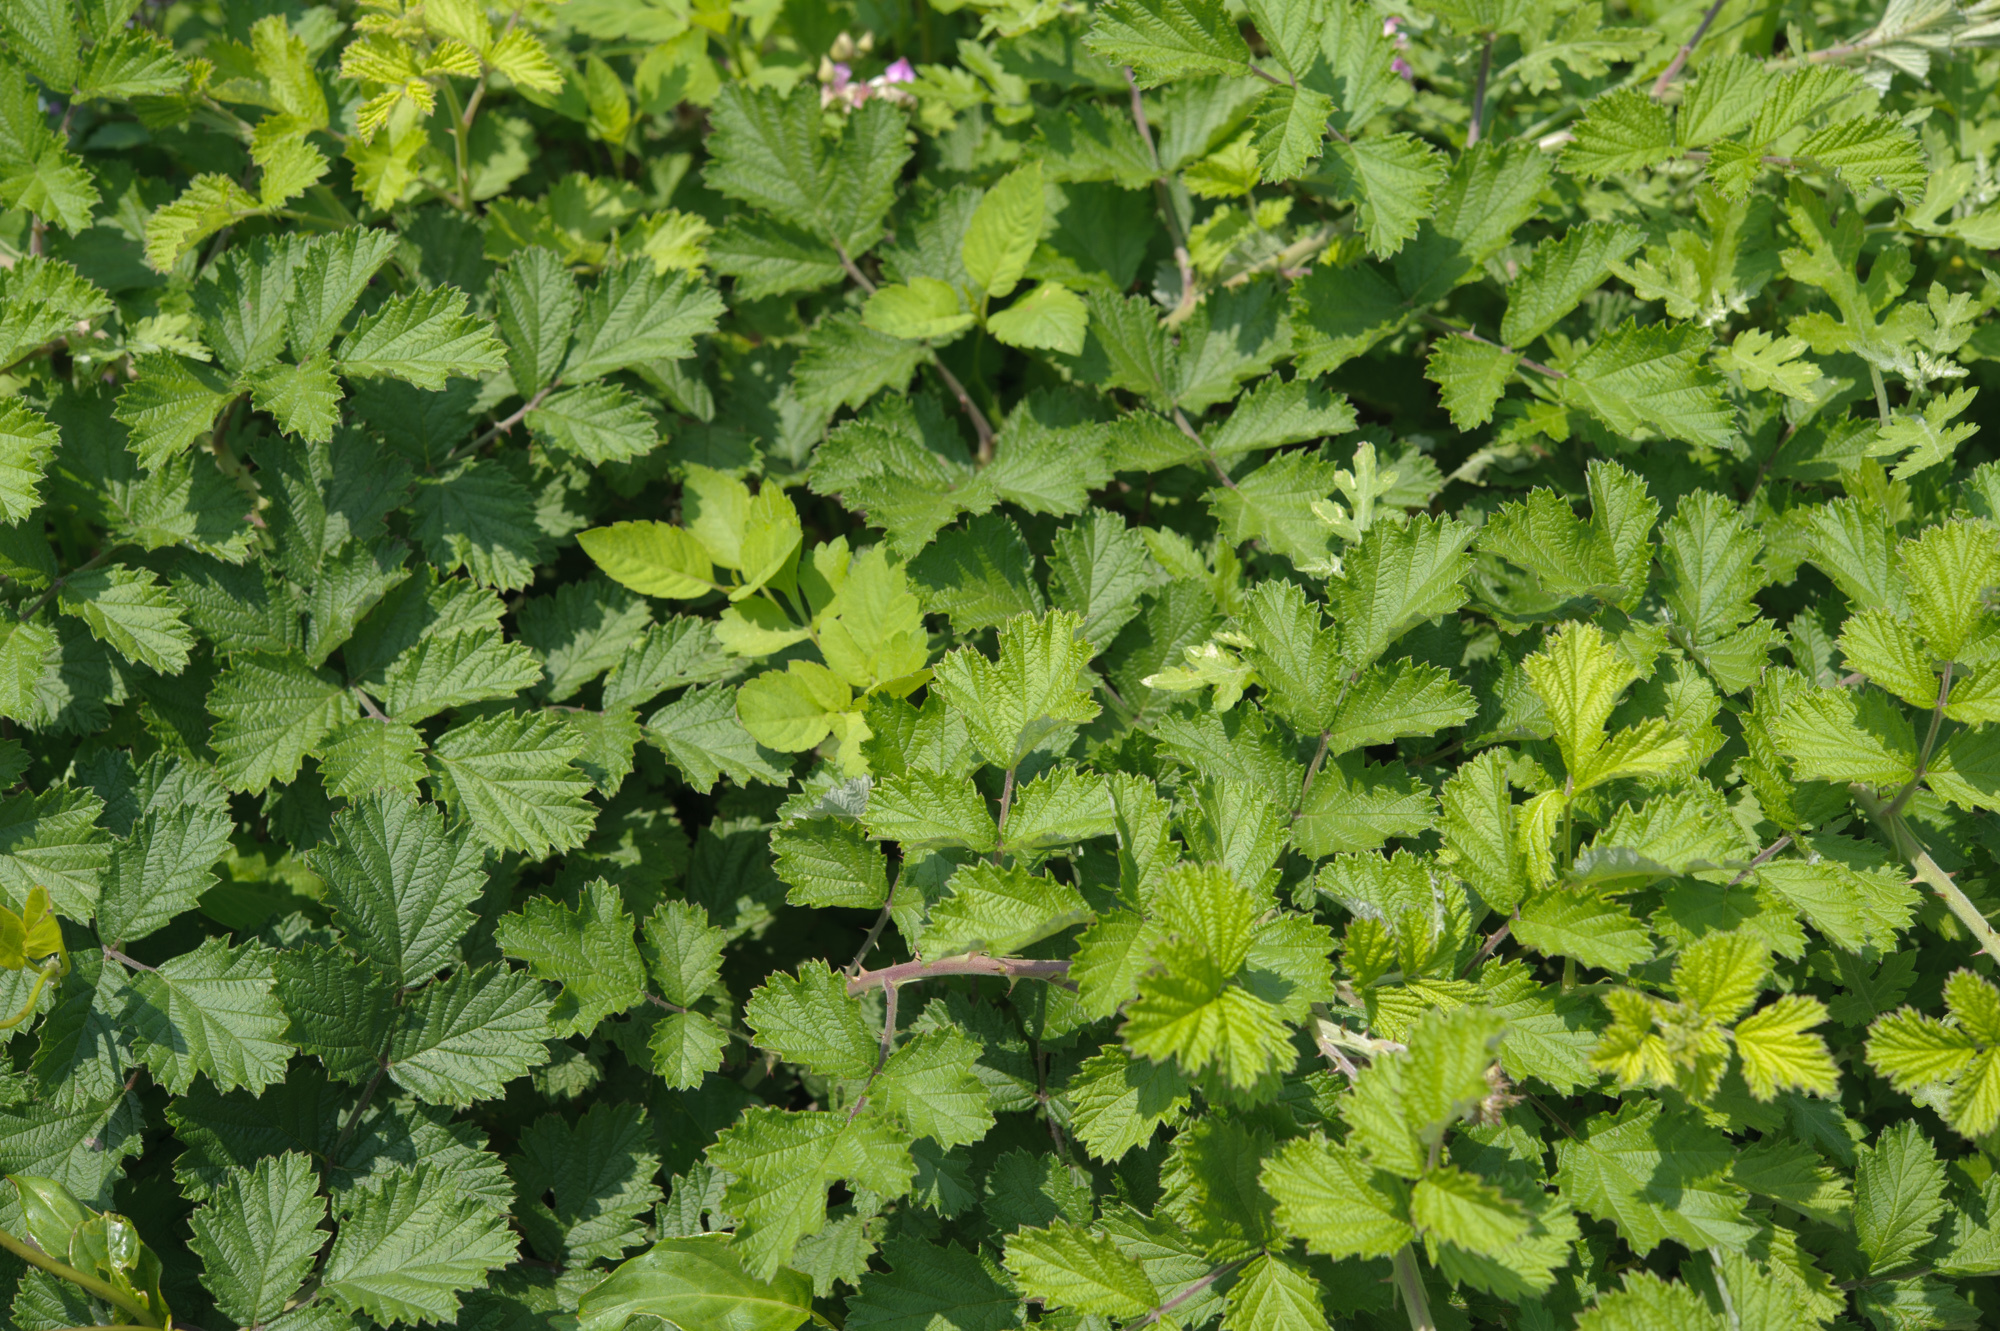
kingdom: Plantae
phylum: Tracheophyta
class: Magnoliopsida
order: Rosales
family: Rosaceae
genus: Rubus
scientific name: Rubus parvifolius
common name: Threeleaf blackberry
